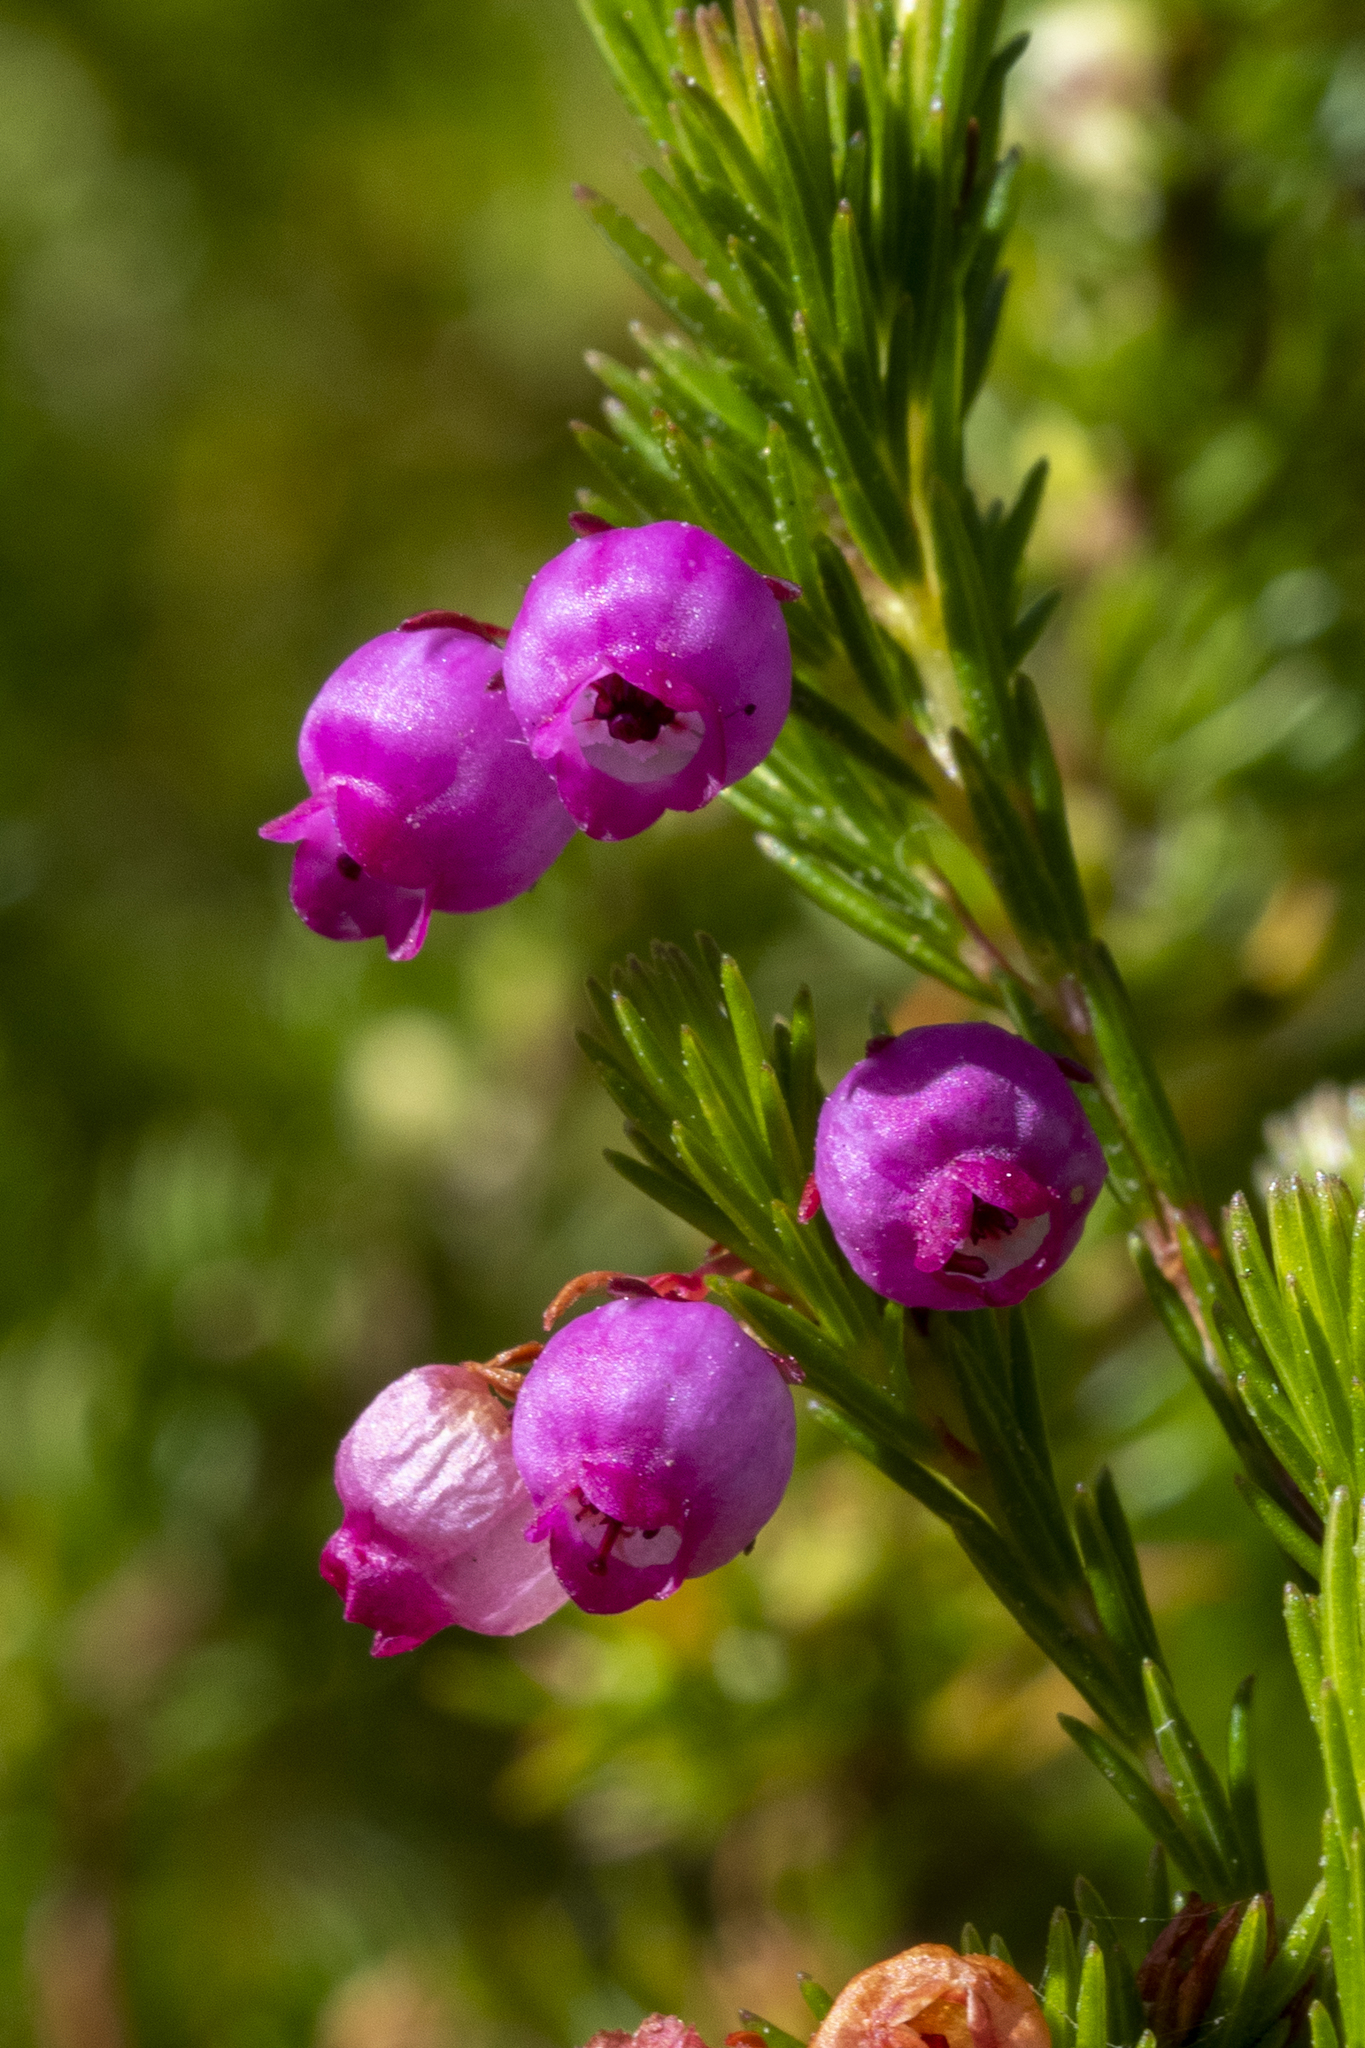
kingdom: Plantae
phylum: Tracheophyta
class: Magnoliopsida
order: Ericales
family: Ericaceae
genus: Erica
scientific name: Erica laeta
